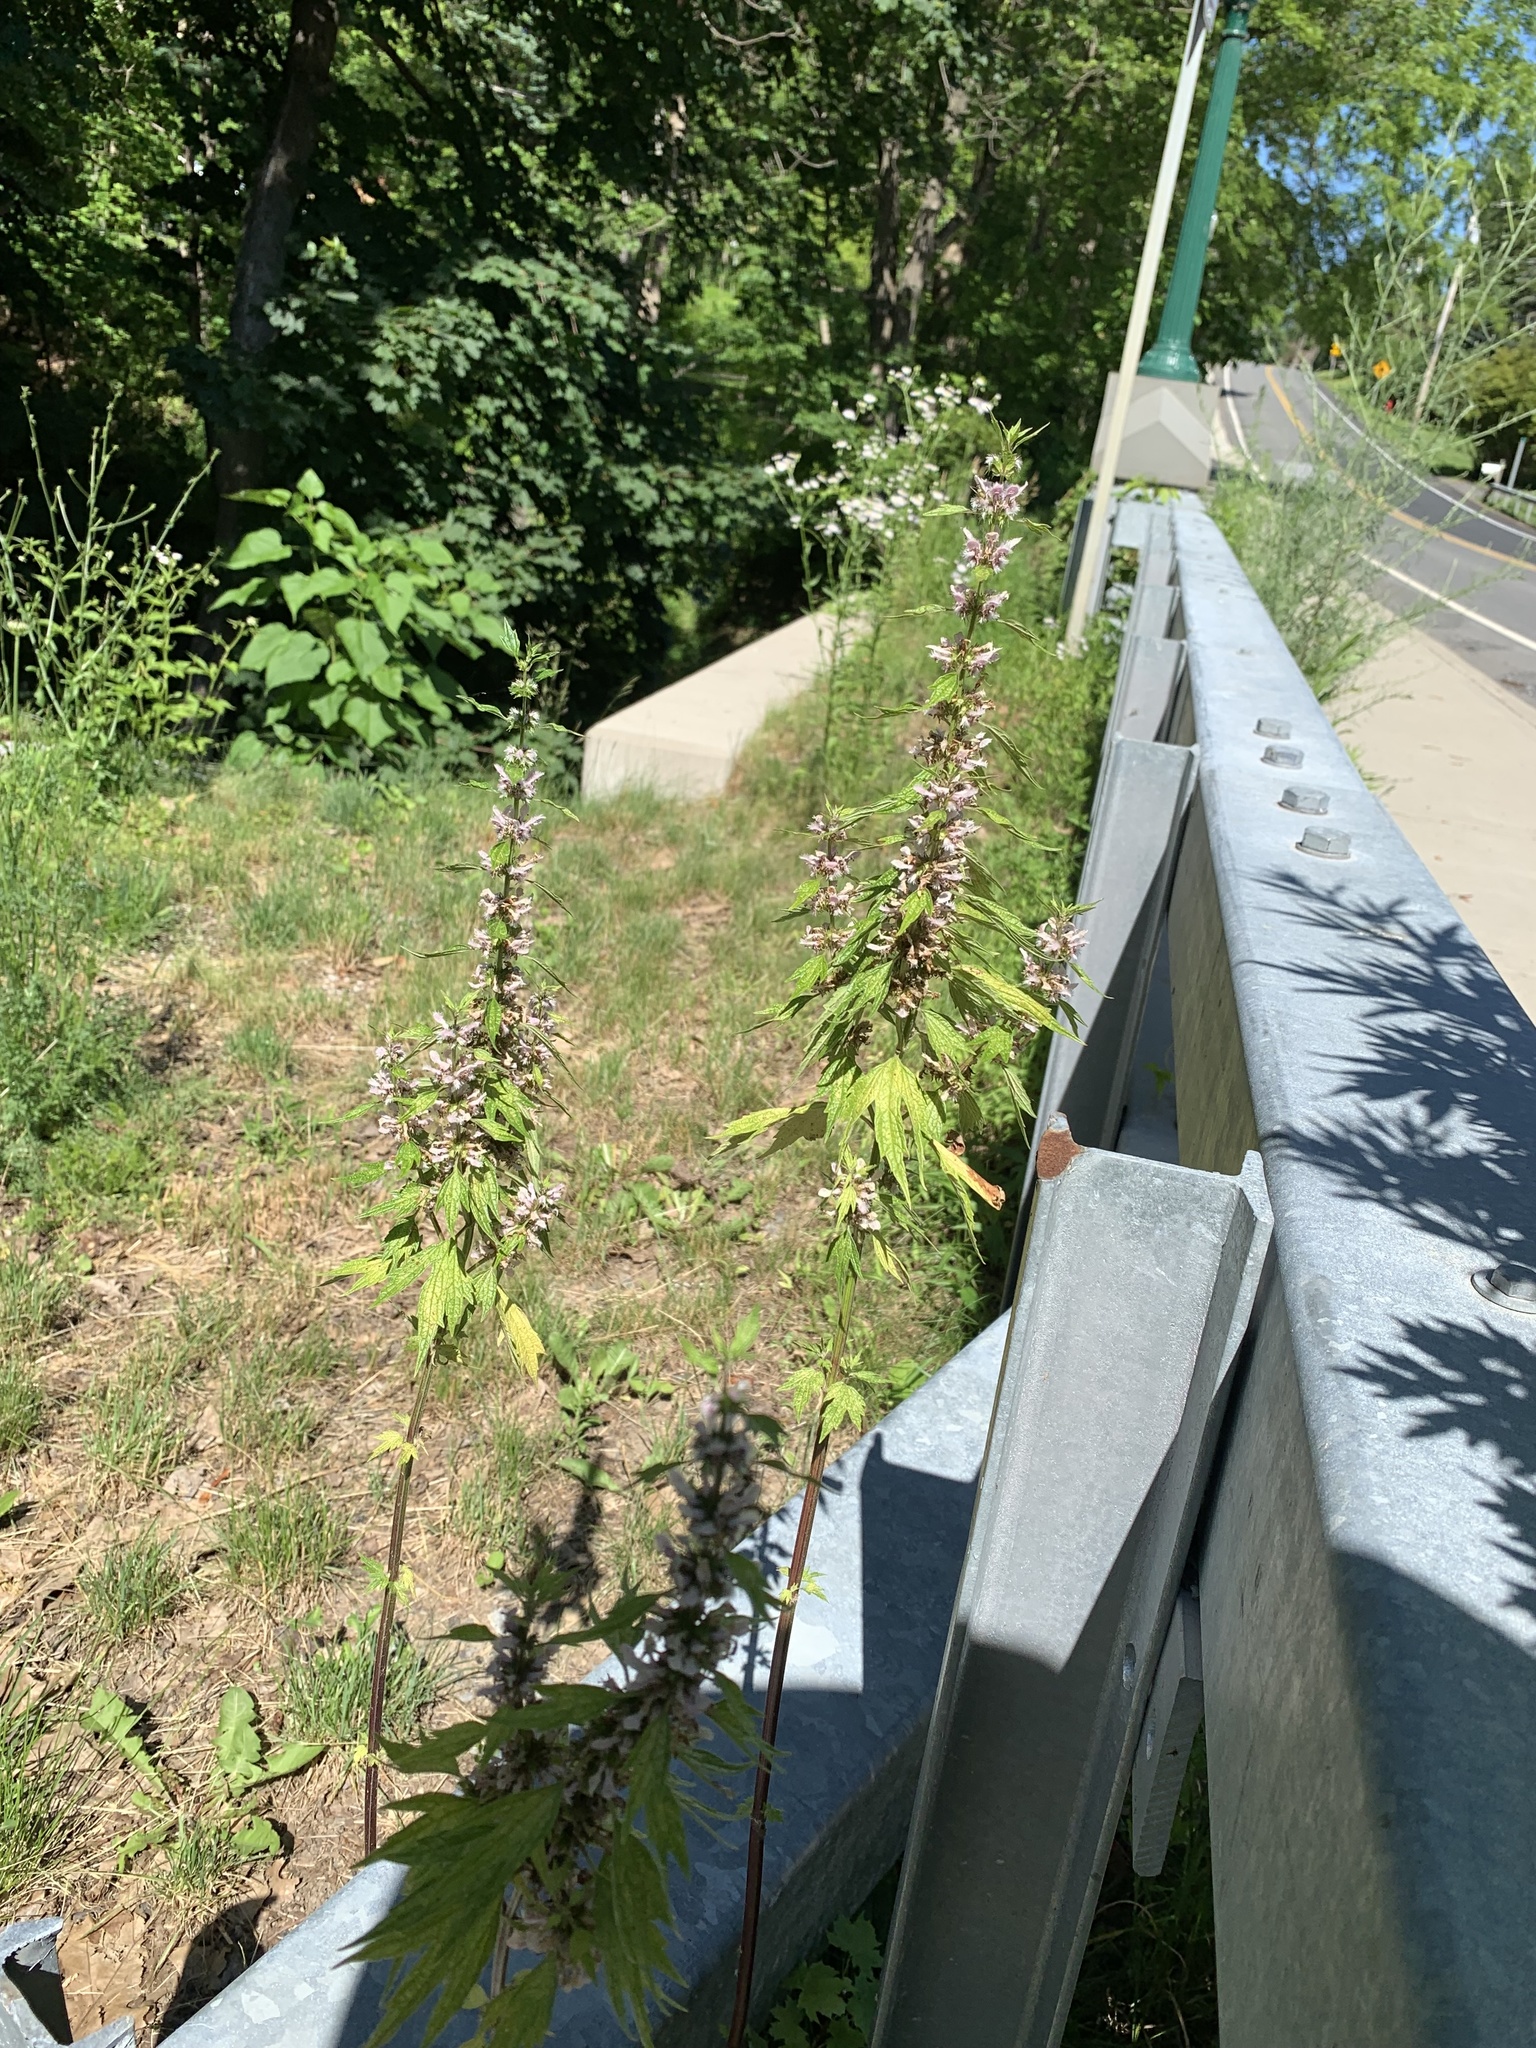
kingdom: Plantae
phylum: Tracheophyta
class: Magnoliopsida
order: Lamiales
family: Lamiaceae
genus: Leonurus
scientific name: Leonurus cardiaca
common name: Motherwort
